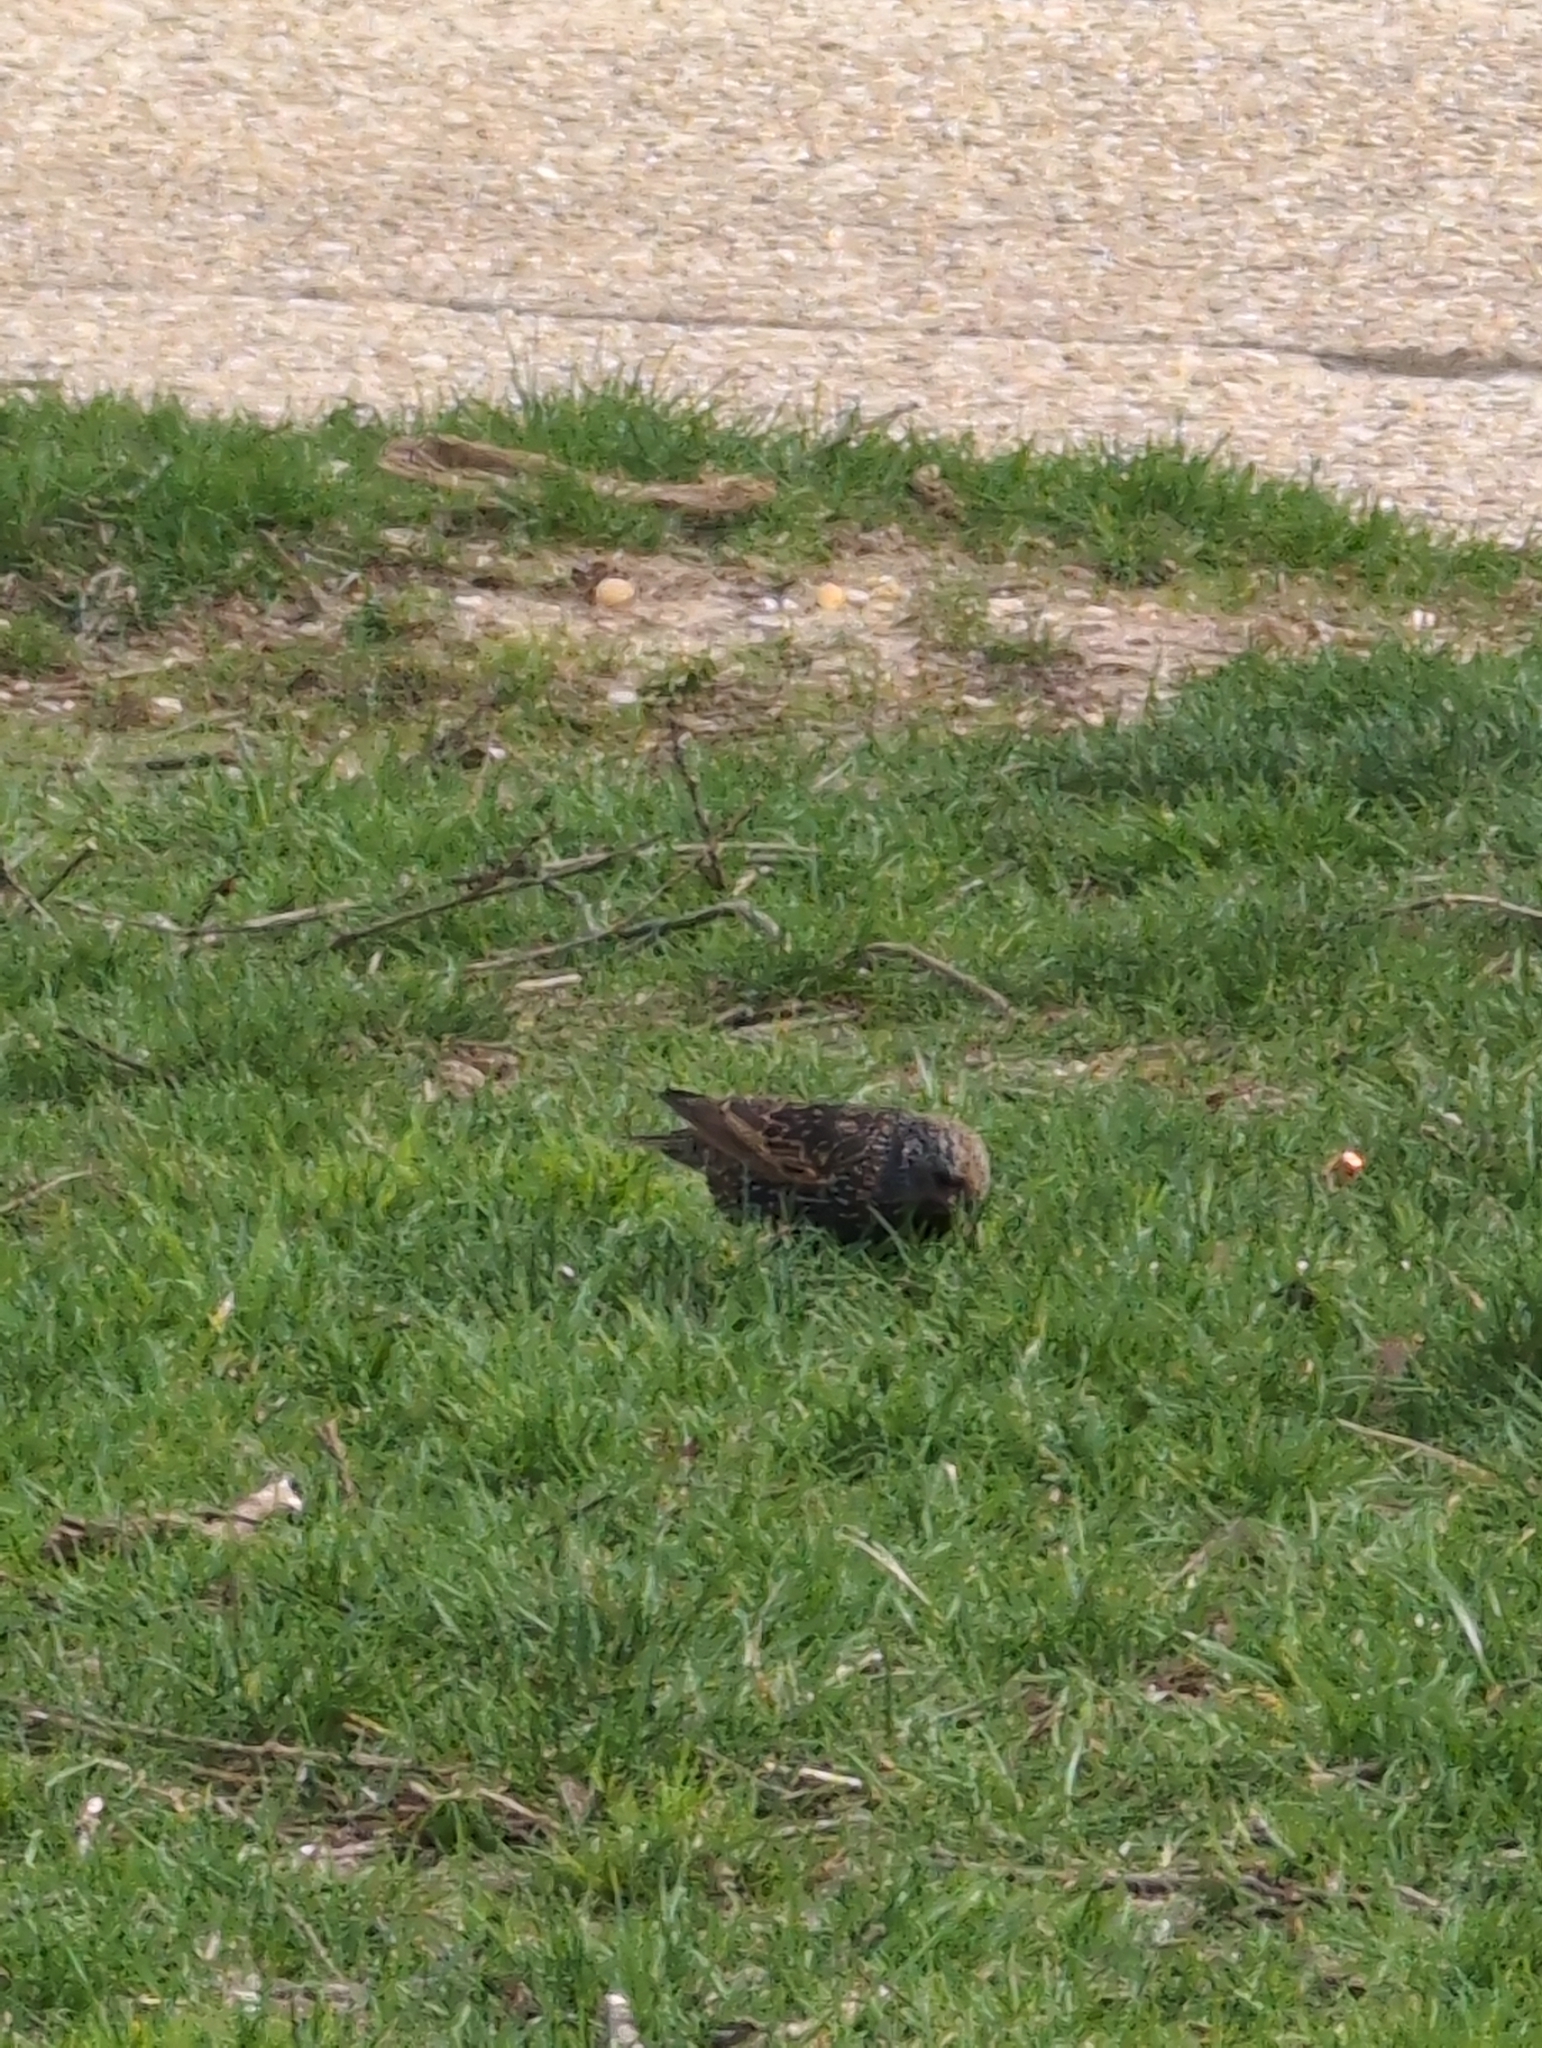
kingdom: Animalia
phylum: Chordata
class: Aves
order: Passeriformes
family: Sturnidae
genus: Sturnus
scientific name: Sturnus vulgaris
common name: Common starling
